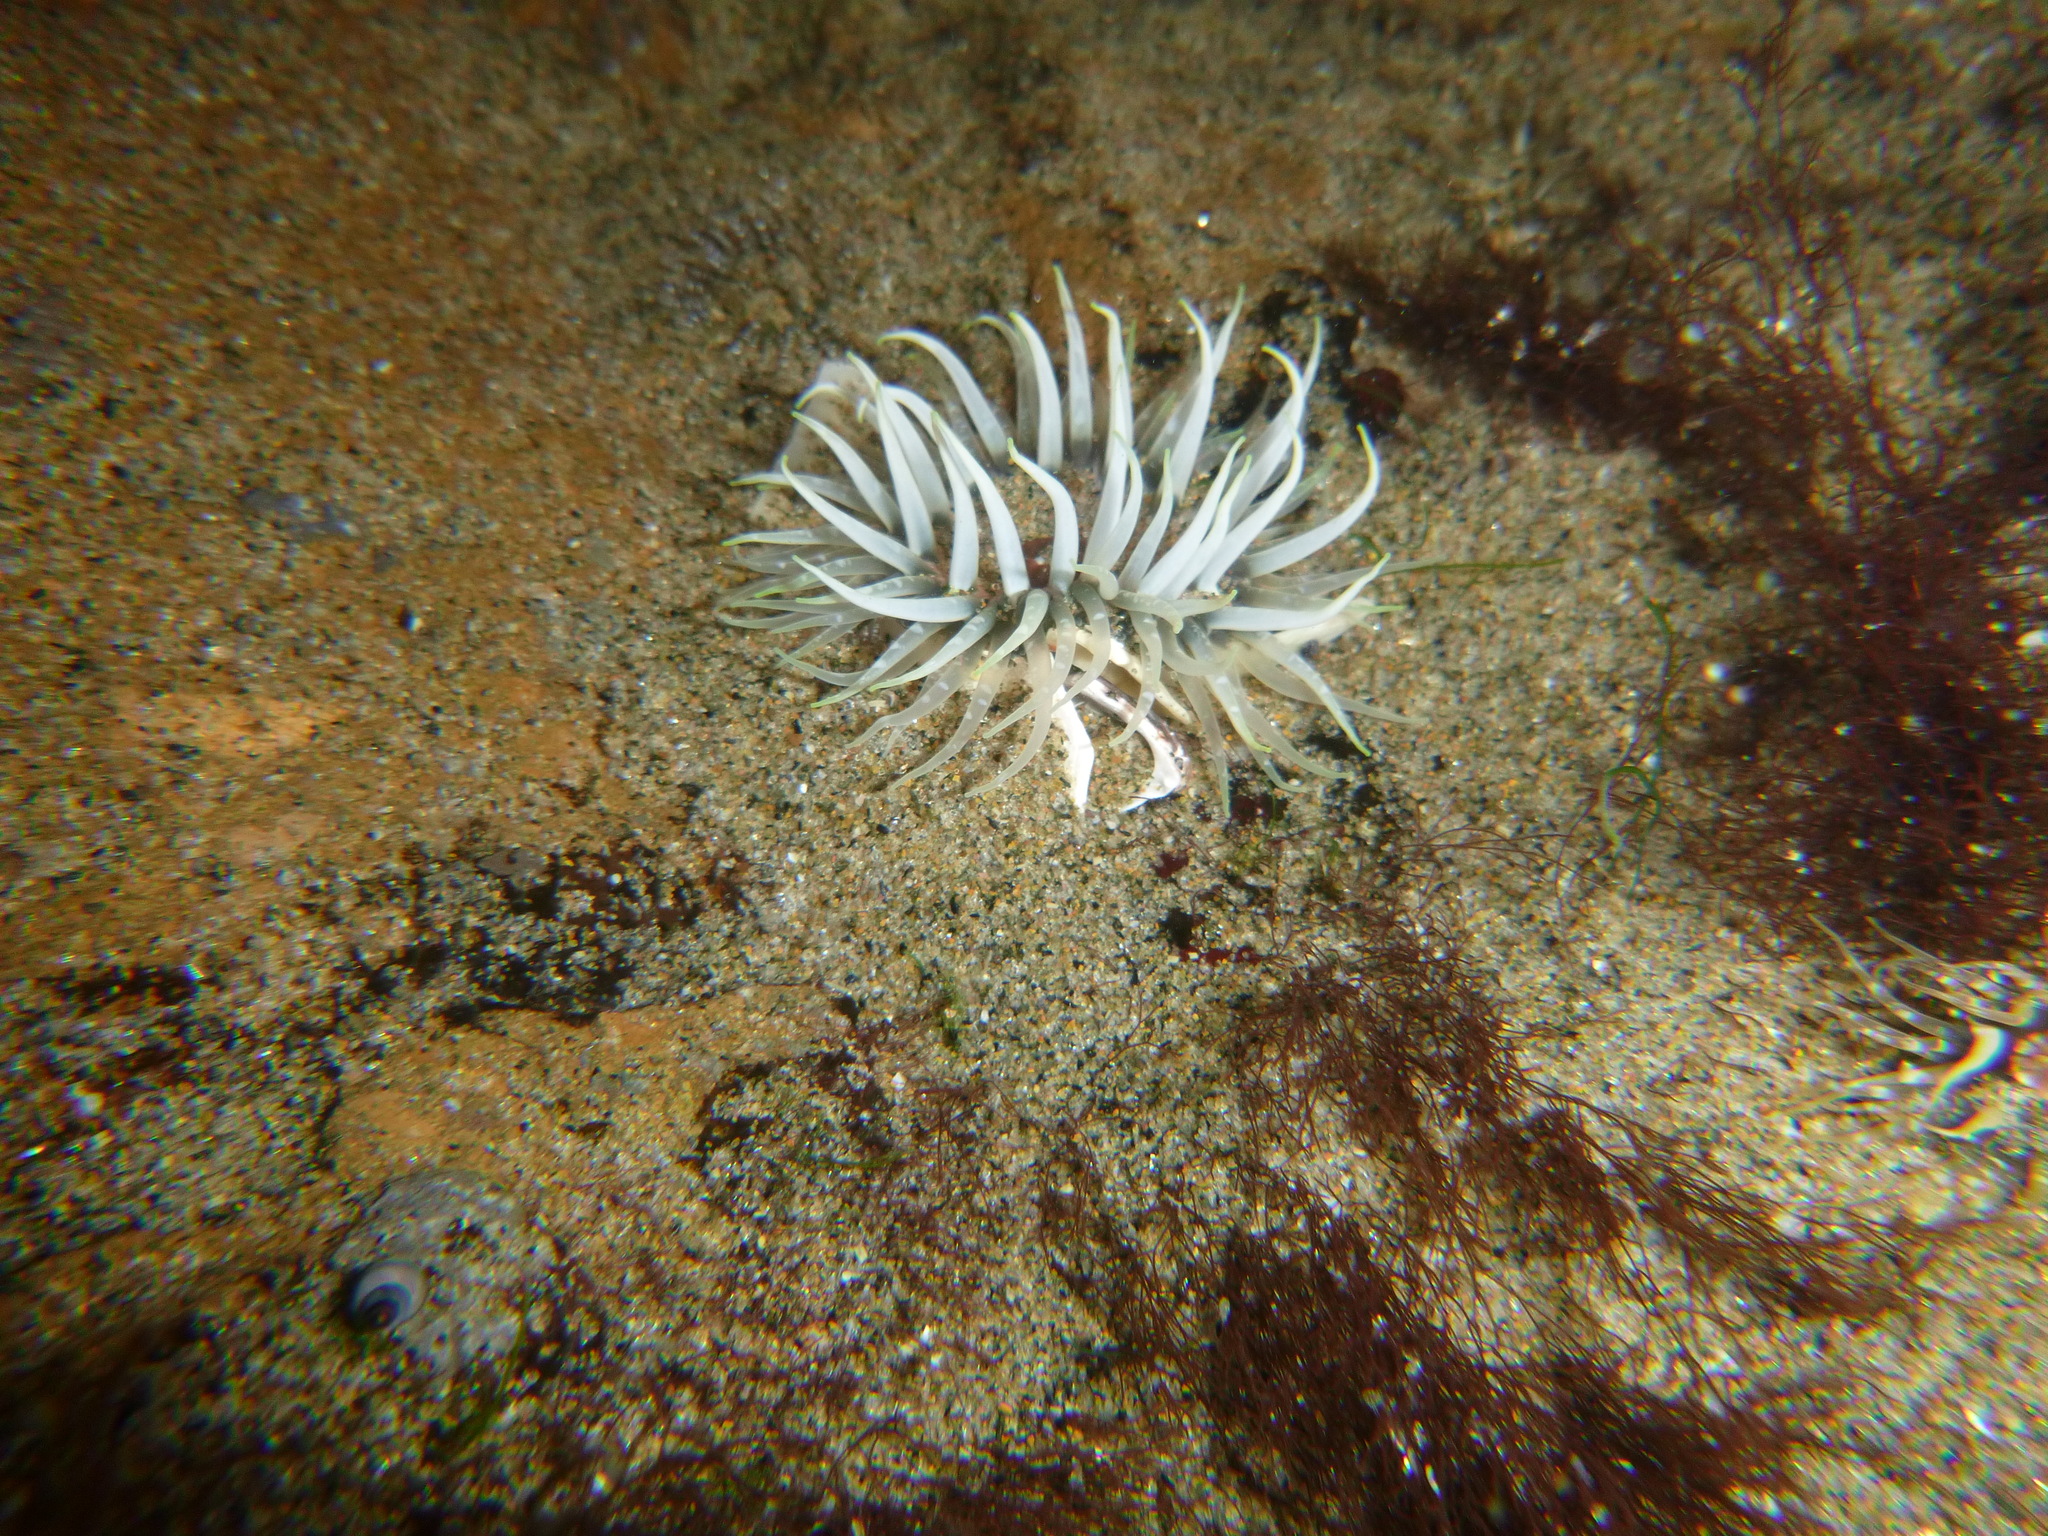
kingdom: Animalia
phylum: Cnidaria
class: Anthozoa
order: Actiniaria
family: Actiniidae
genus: Oulactis
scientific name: Oulactis magna
